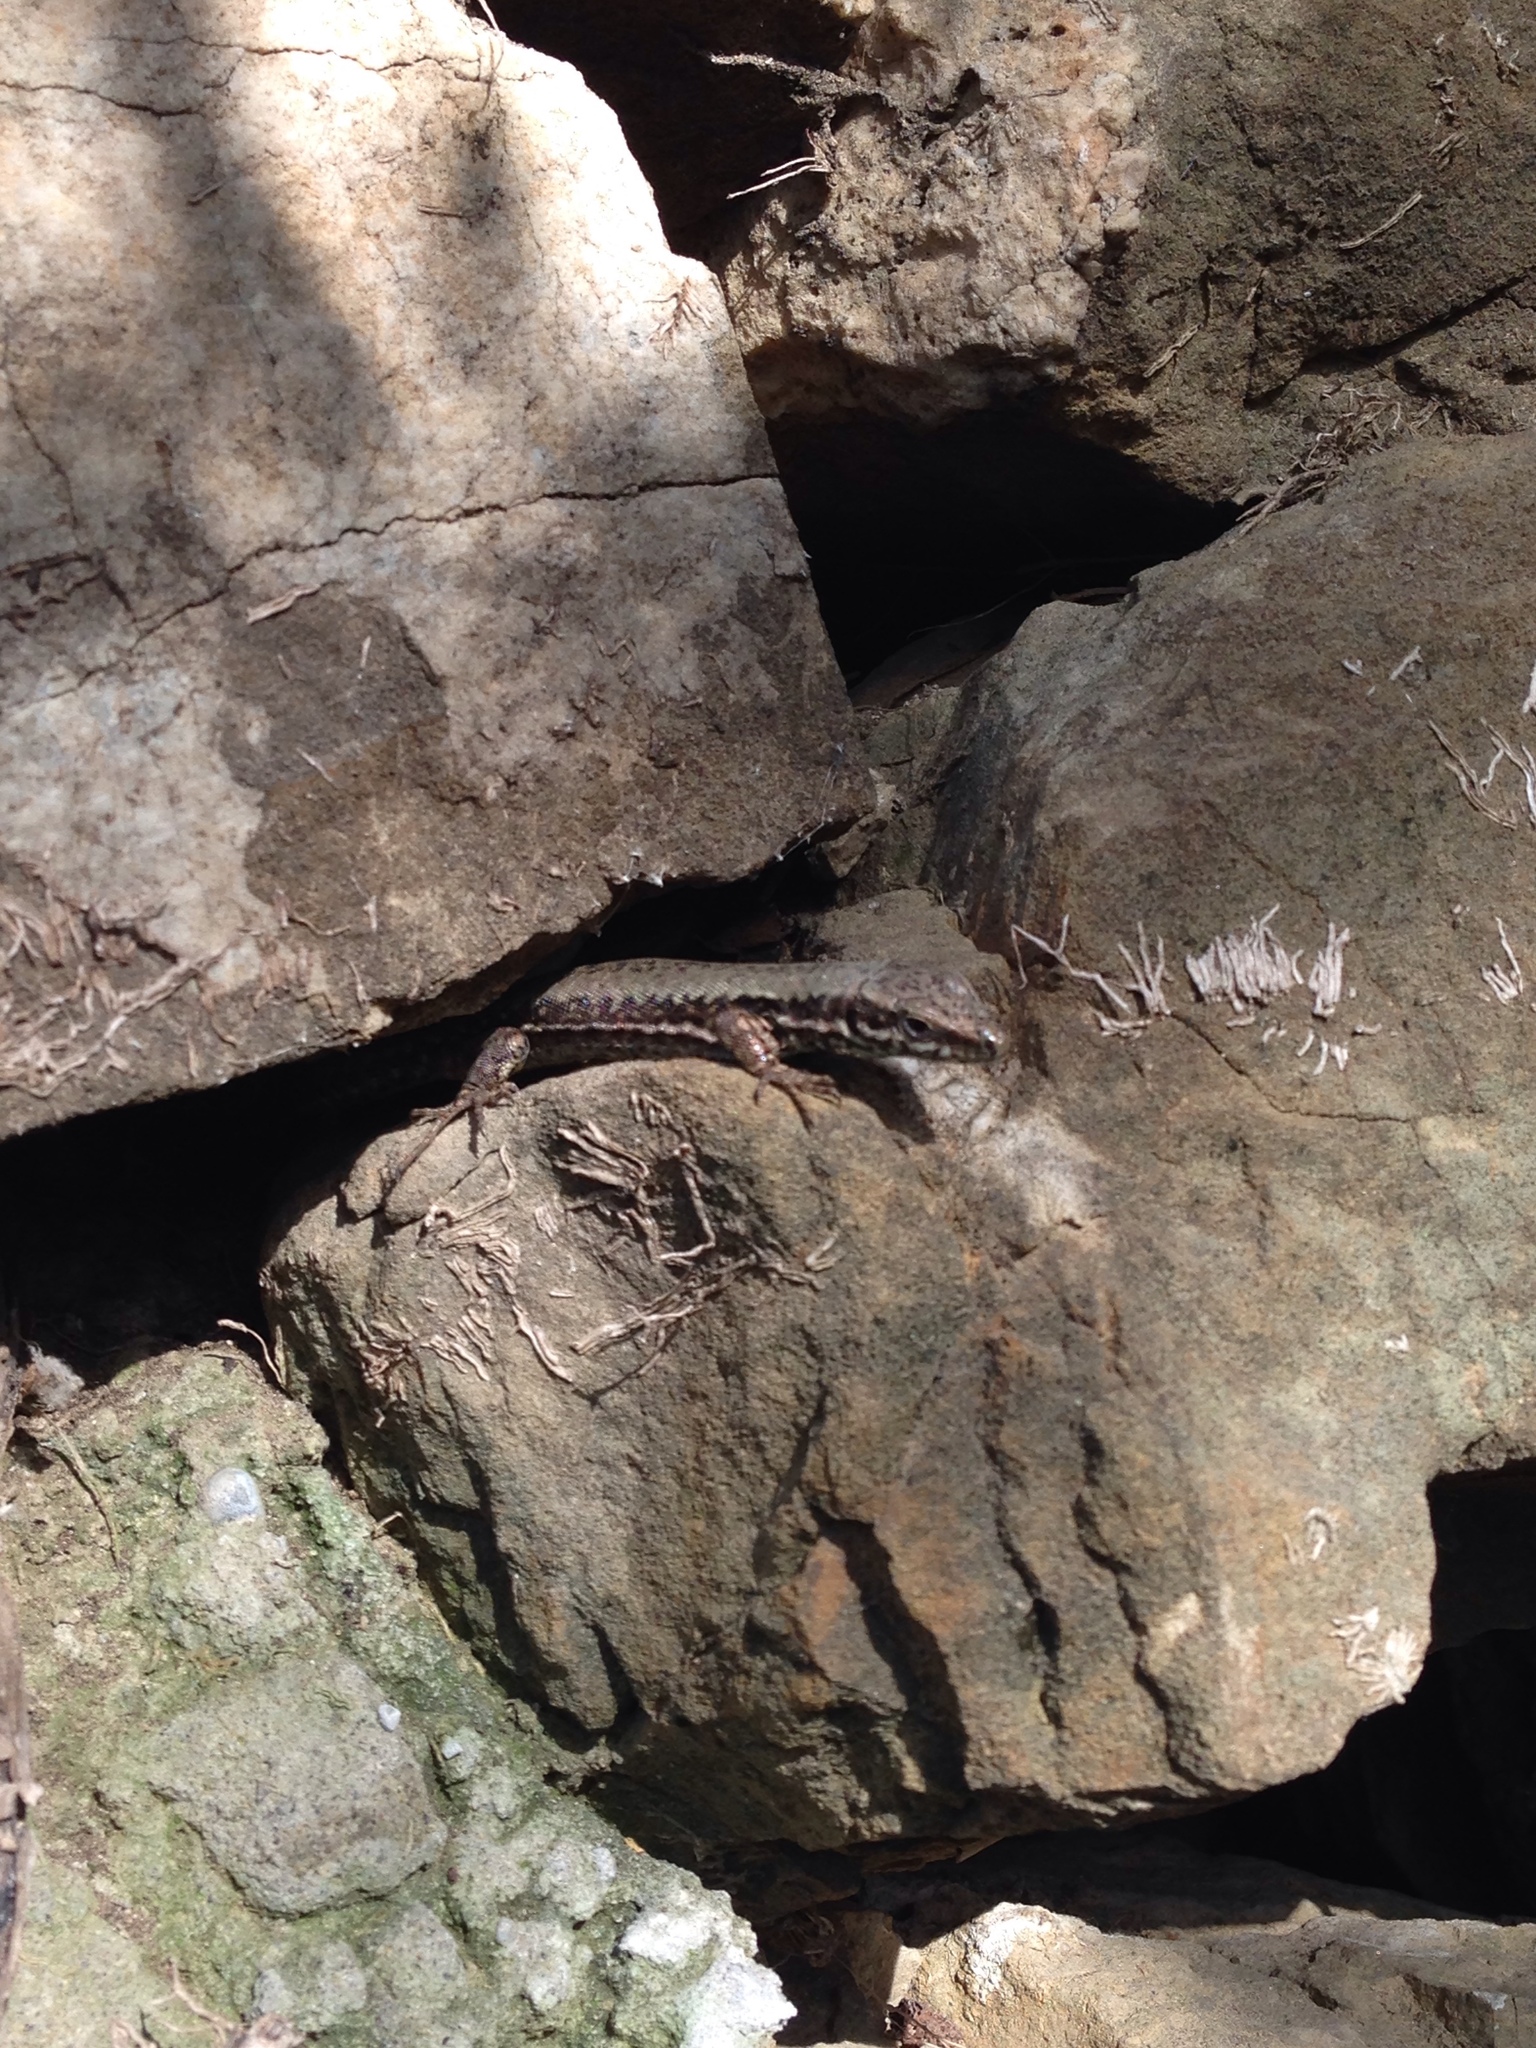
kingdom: Animalia
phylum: Chordata
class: Squamata
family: Lacertidae
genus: Podarcis
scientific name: Podarcis muralis
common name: Common wall lizard
